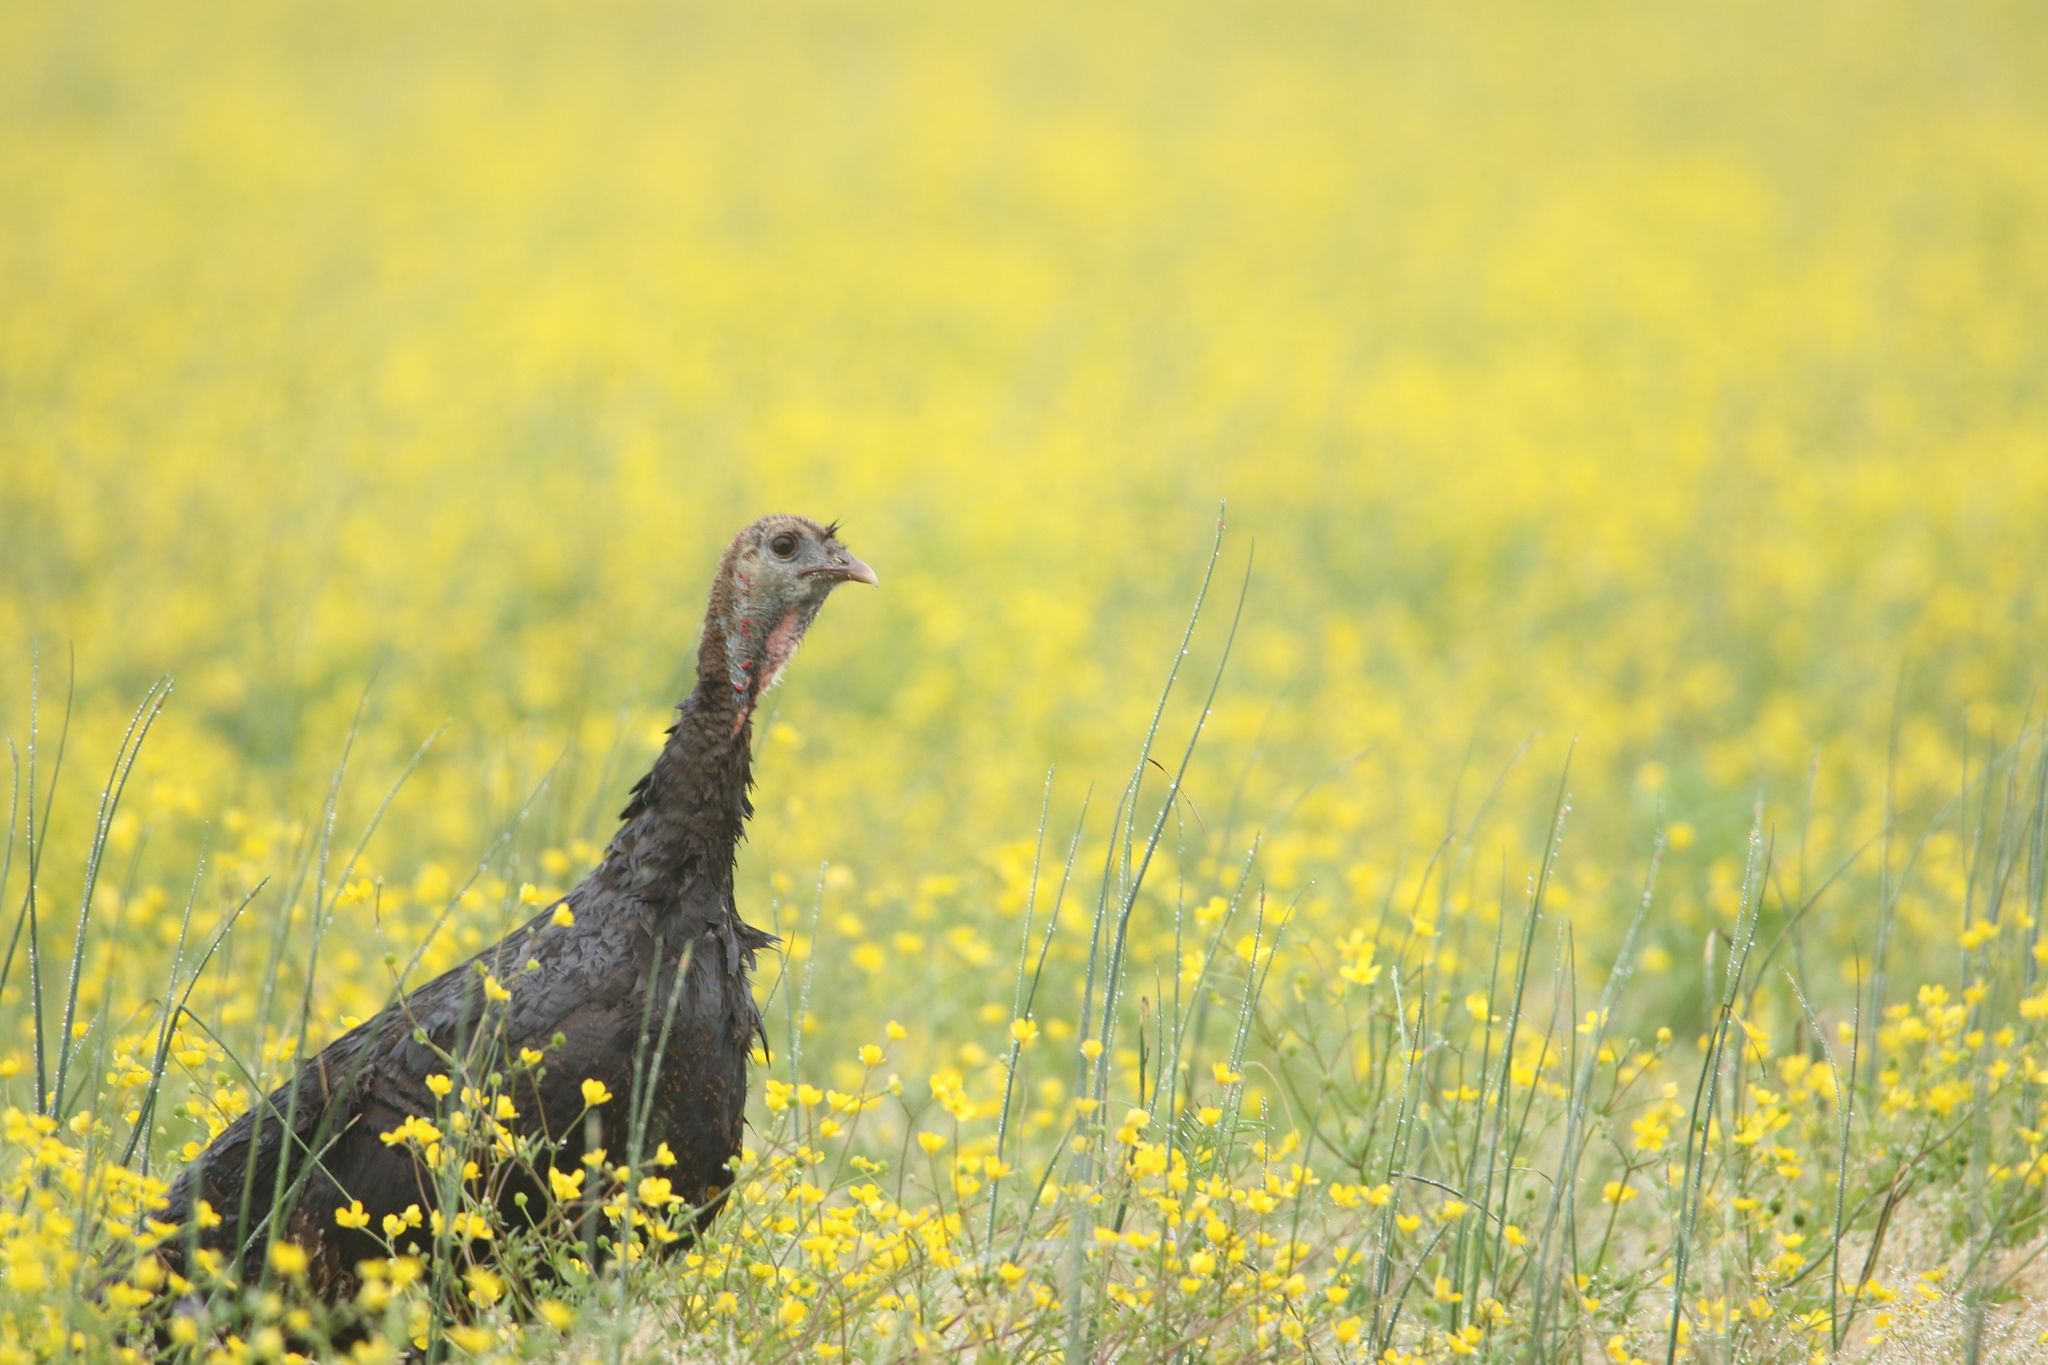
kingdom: Animalia
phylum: Chordata
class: Aves
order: Galliformes
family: Phasianidae
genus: Meleagris
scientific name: Meleagris gallopavo
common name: Wild turkey
